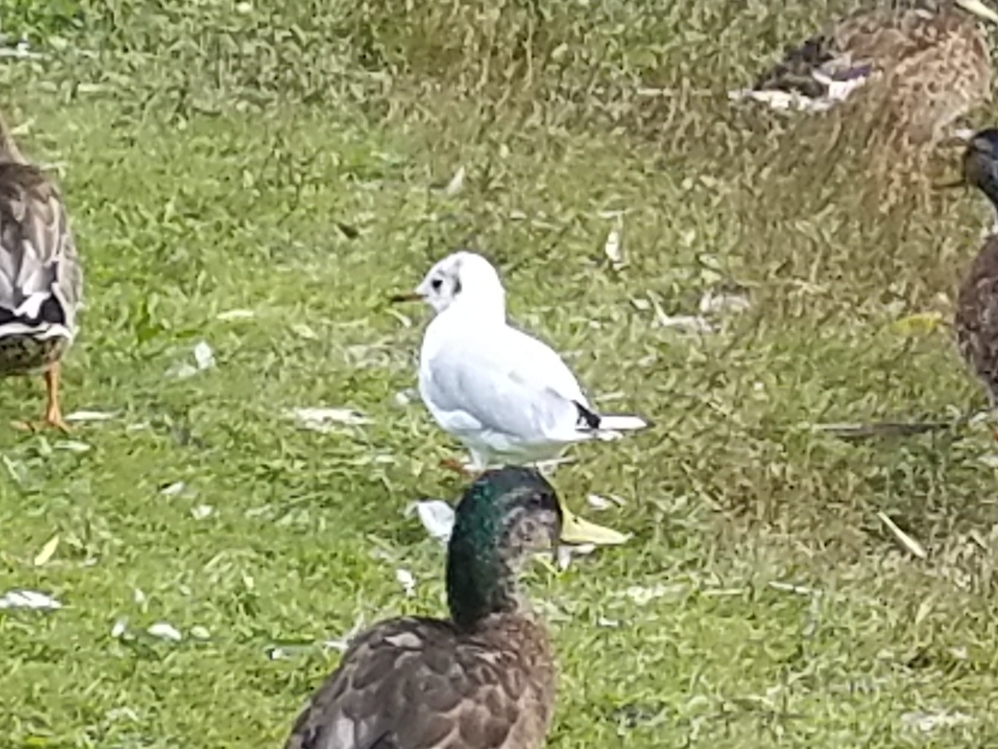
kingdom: Animalia
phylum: Chordata
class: Aves
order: Charadriiformes
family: Laridae
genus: Chroicocephalus
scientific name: Chroicocephalus ridibundus
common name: Black-headed gull
